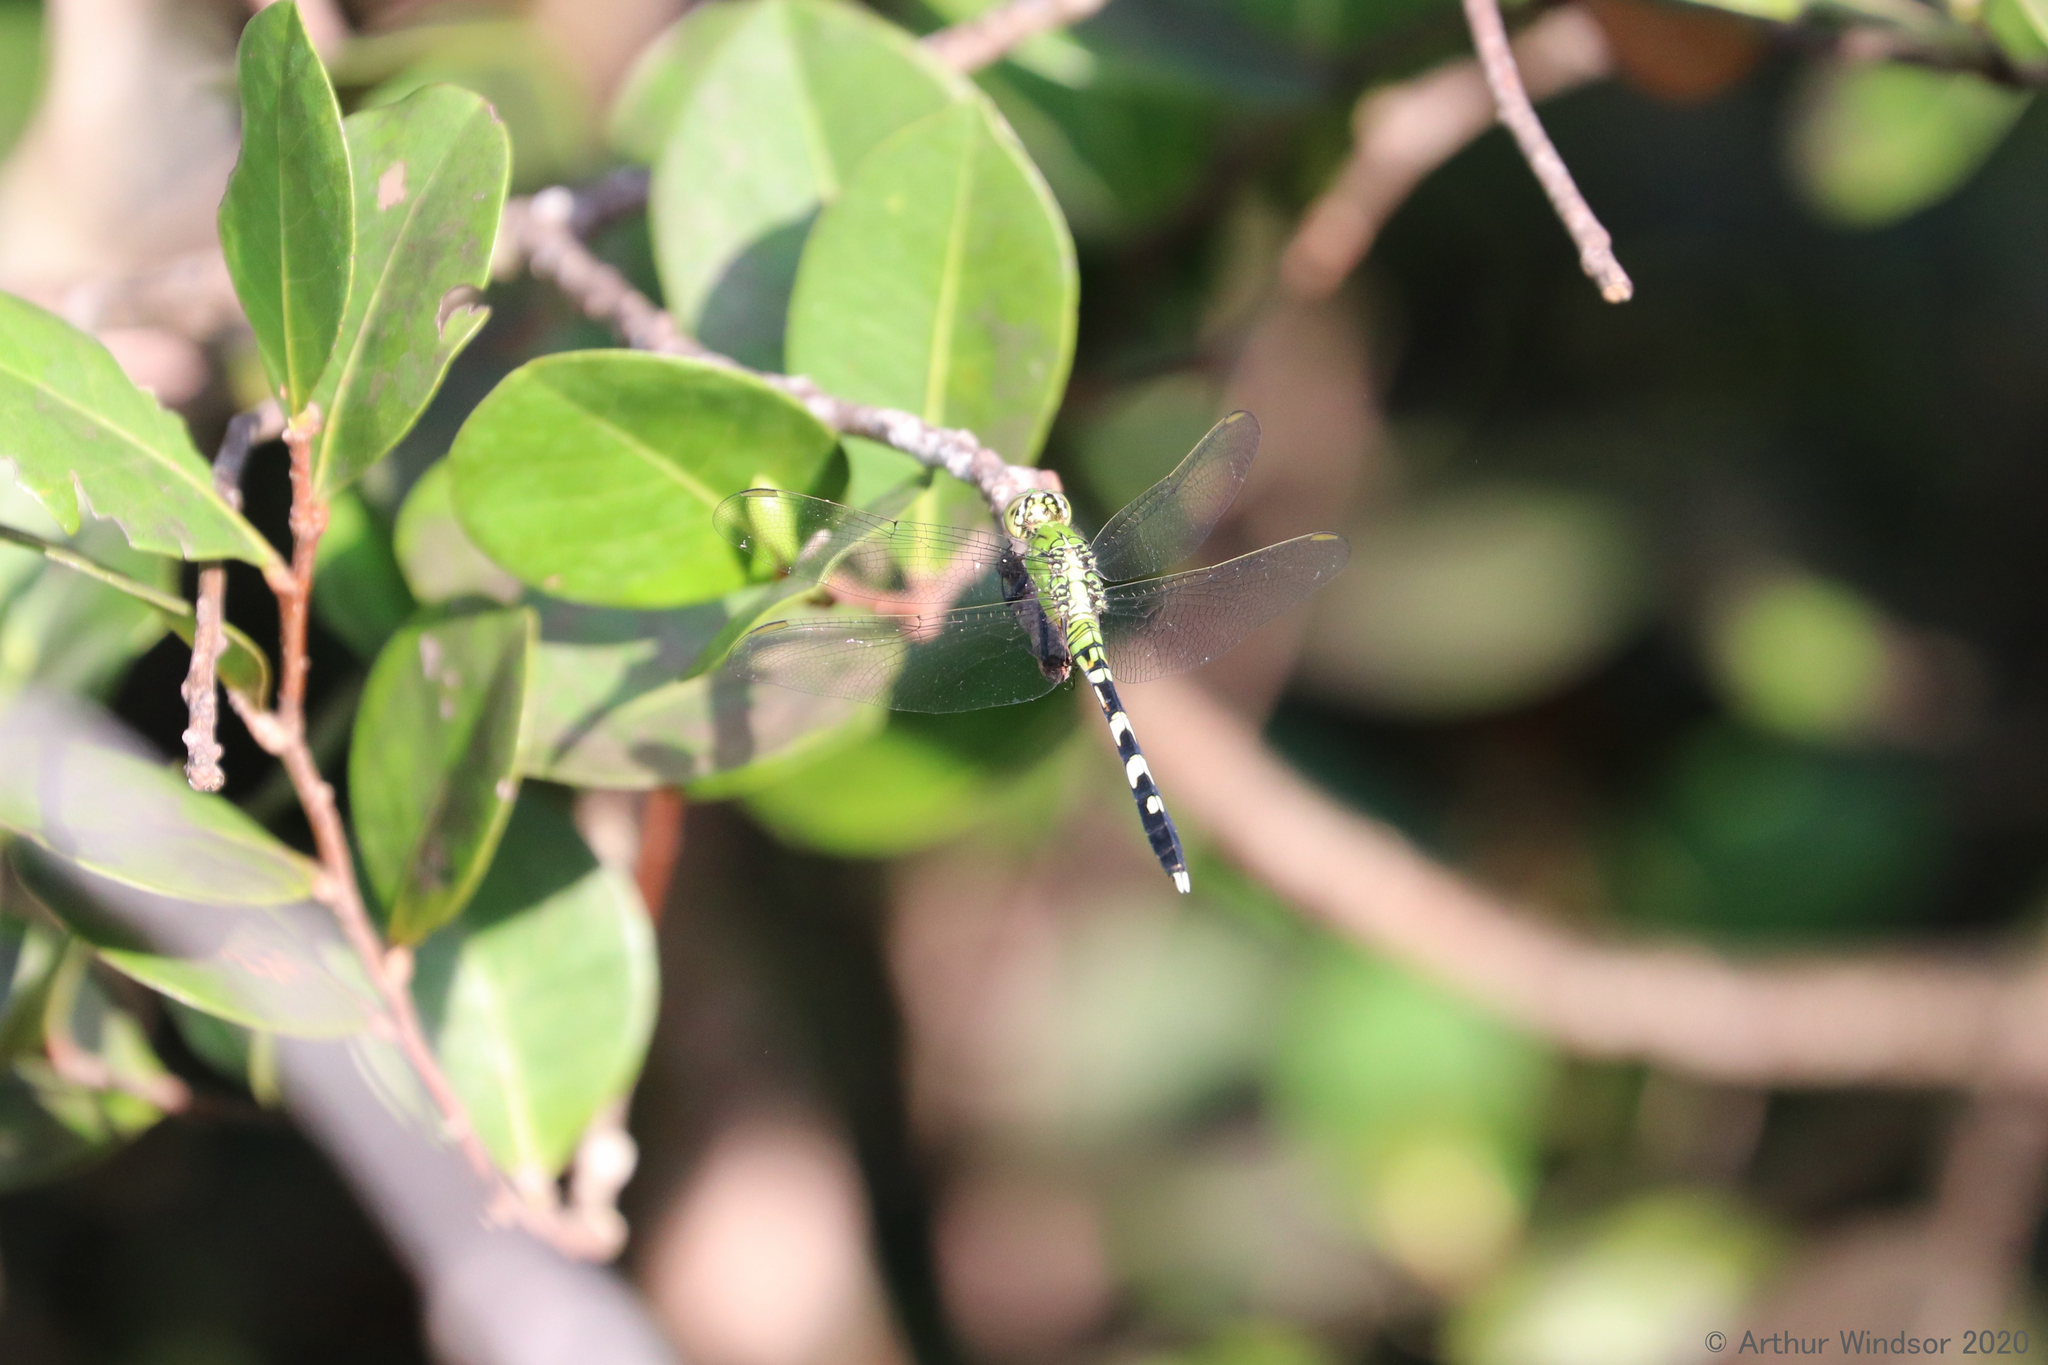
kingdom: Animalia
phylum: Arthropoda
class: Insecta
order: Odonata
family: Libellulidae
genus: Erythemis
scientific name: Erythemis simplicicollis
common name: Eastern pondhawk
